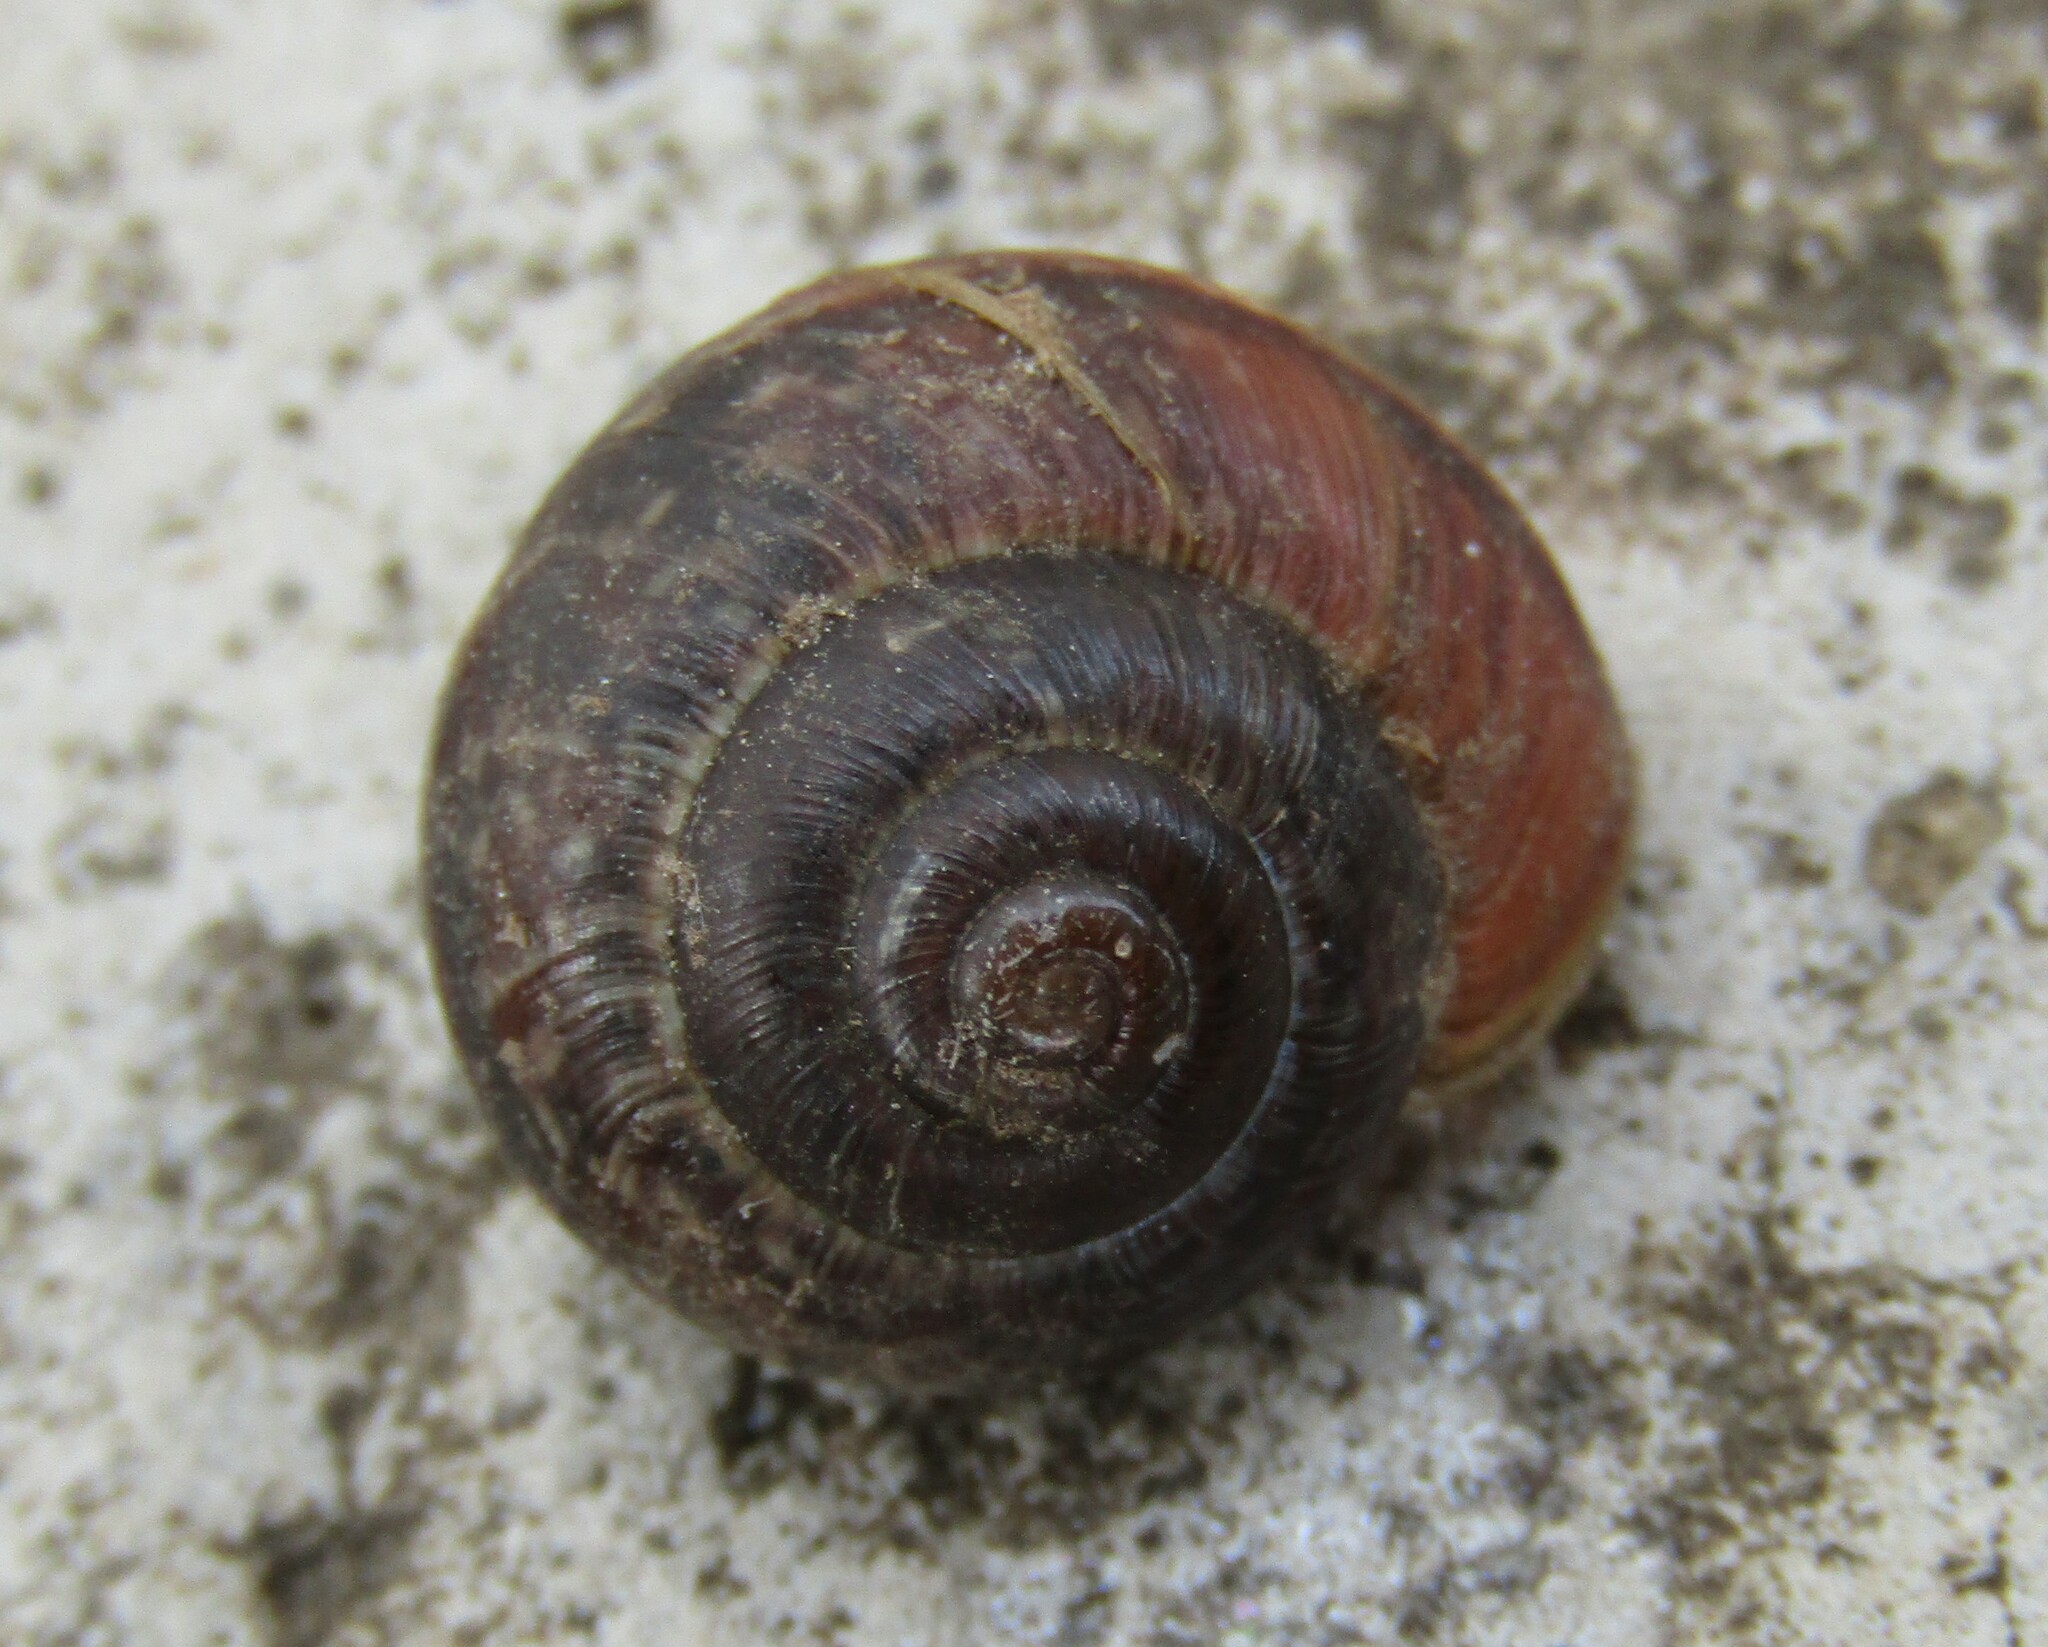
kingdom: Animalia
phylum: Mollusca
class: Gastropoda
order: Stylommatophora
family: Helicidae
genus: Arianta
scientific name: Arianta arbustorum
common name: Copse snail
